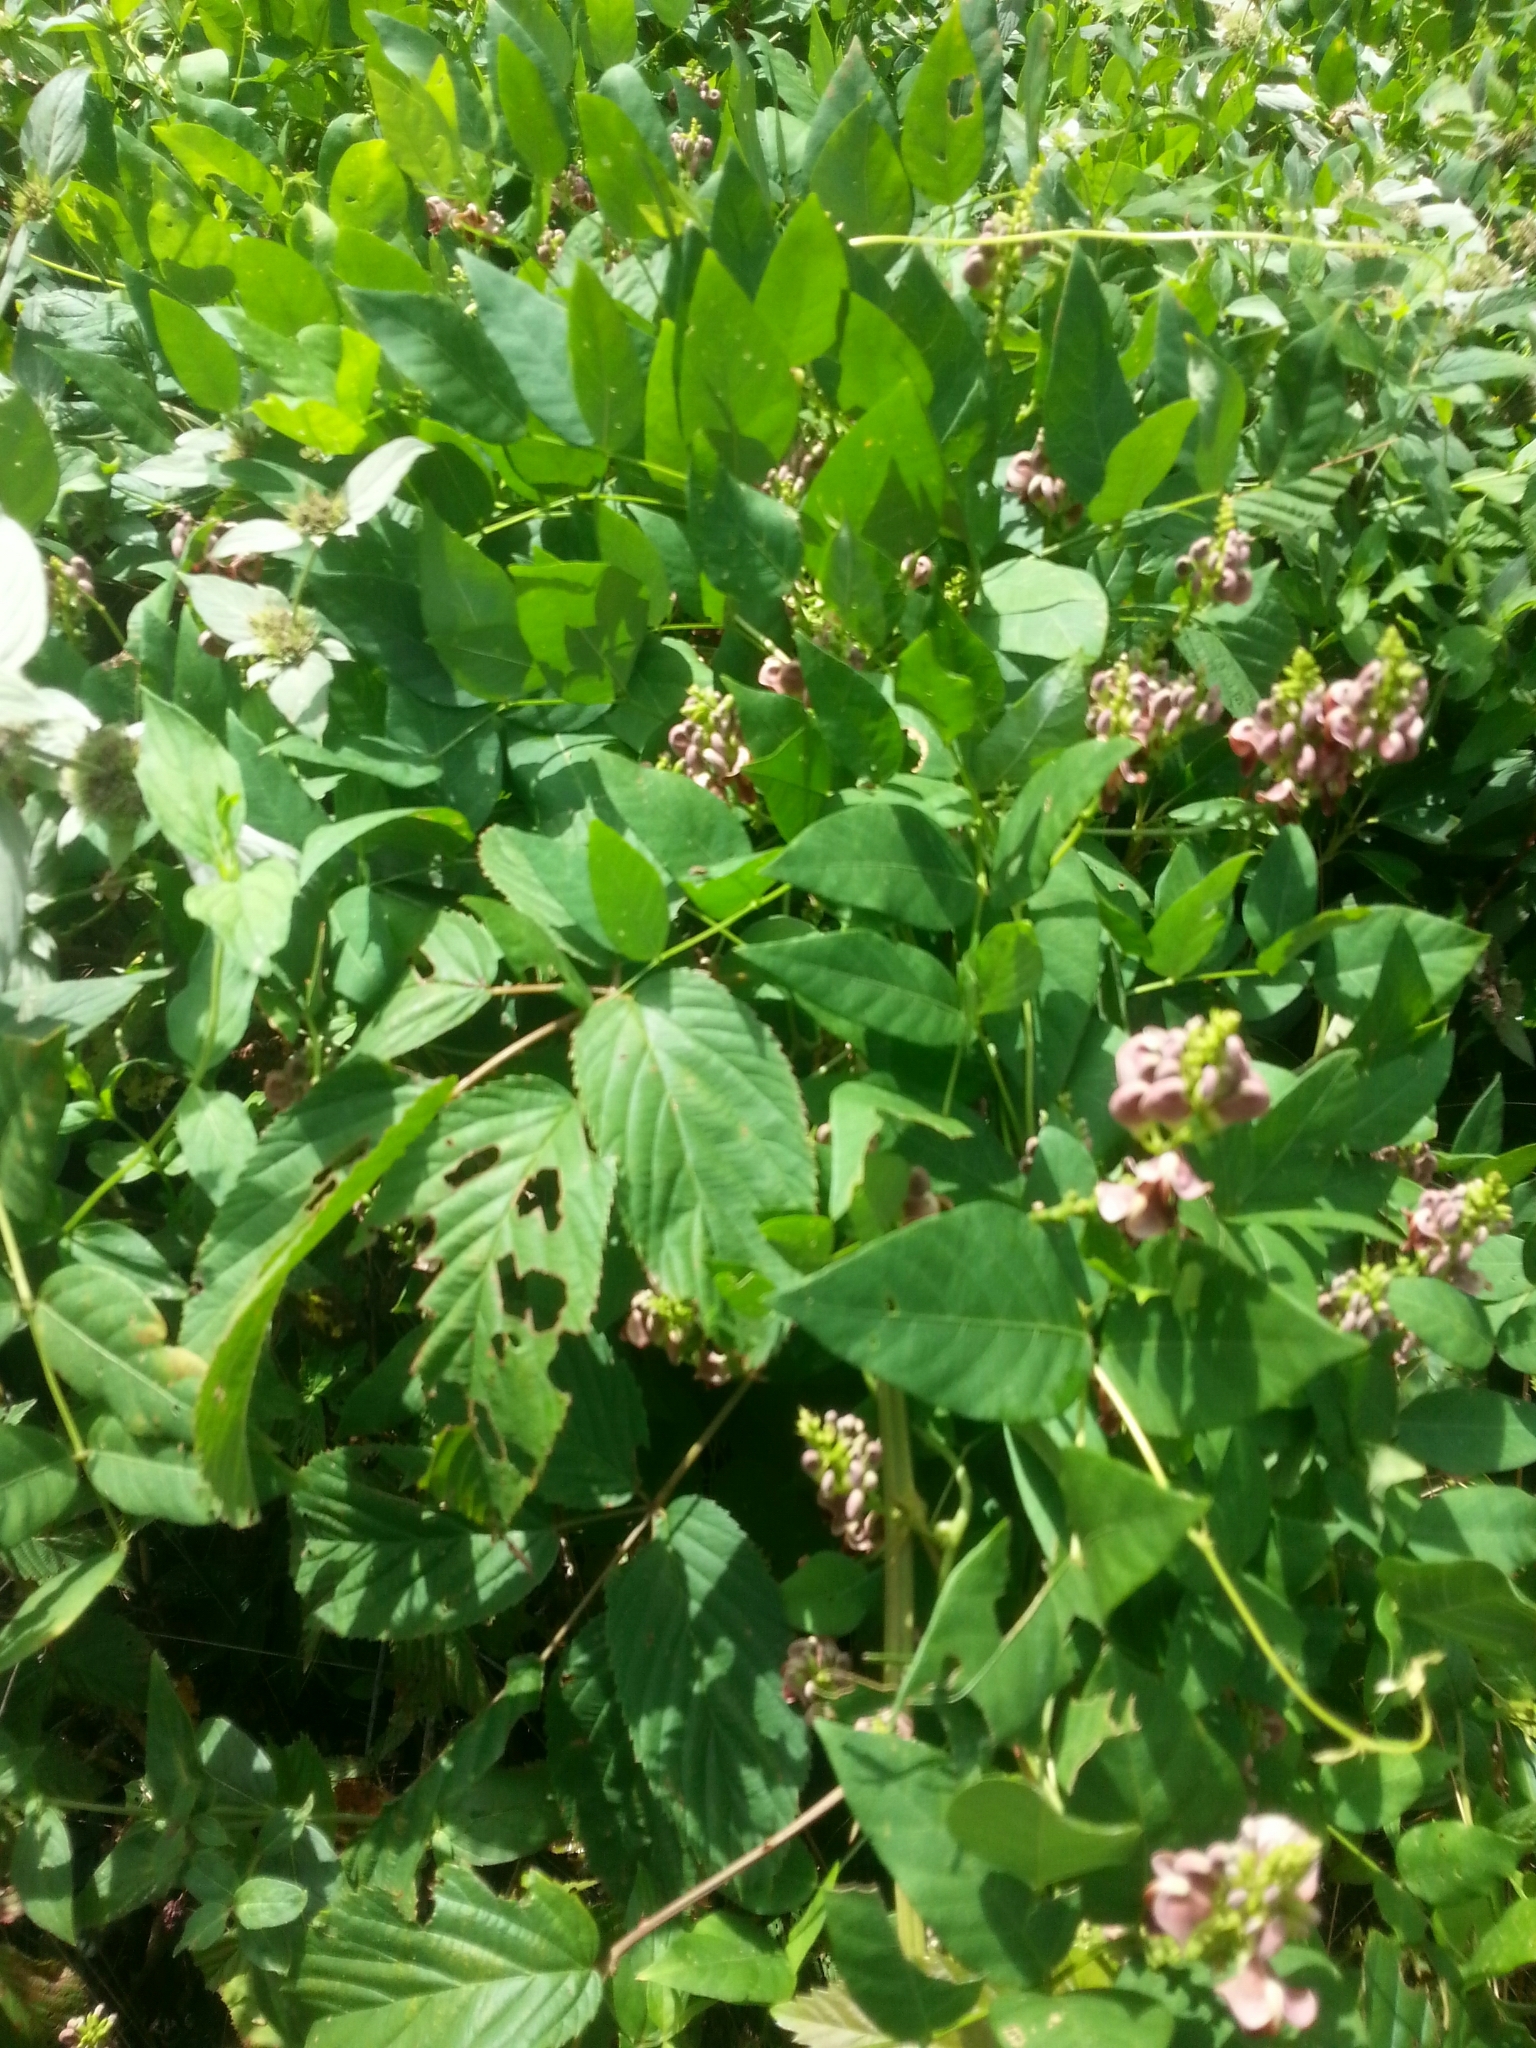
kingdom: Plantae
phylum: Tracheophyta
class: Magnoliopsida
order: Fabales
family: Fabaceae
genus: Apios
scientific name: Apios americana
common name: American potato-bean
